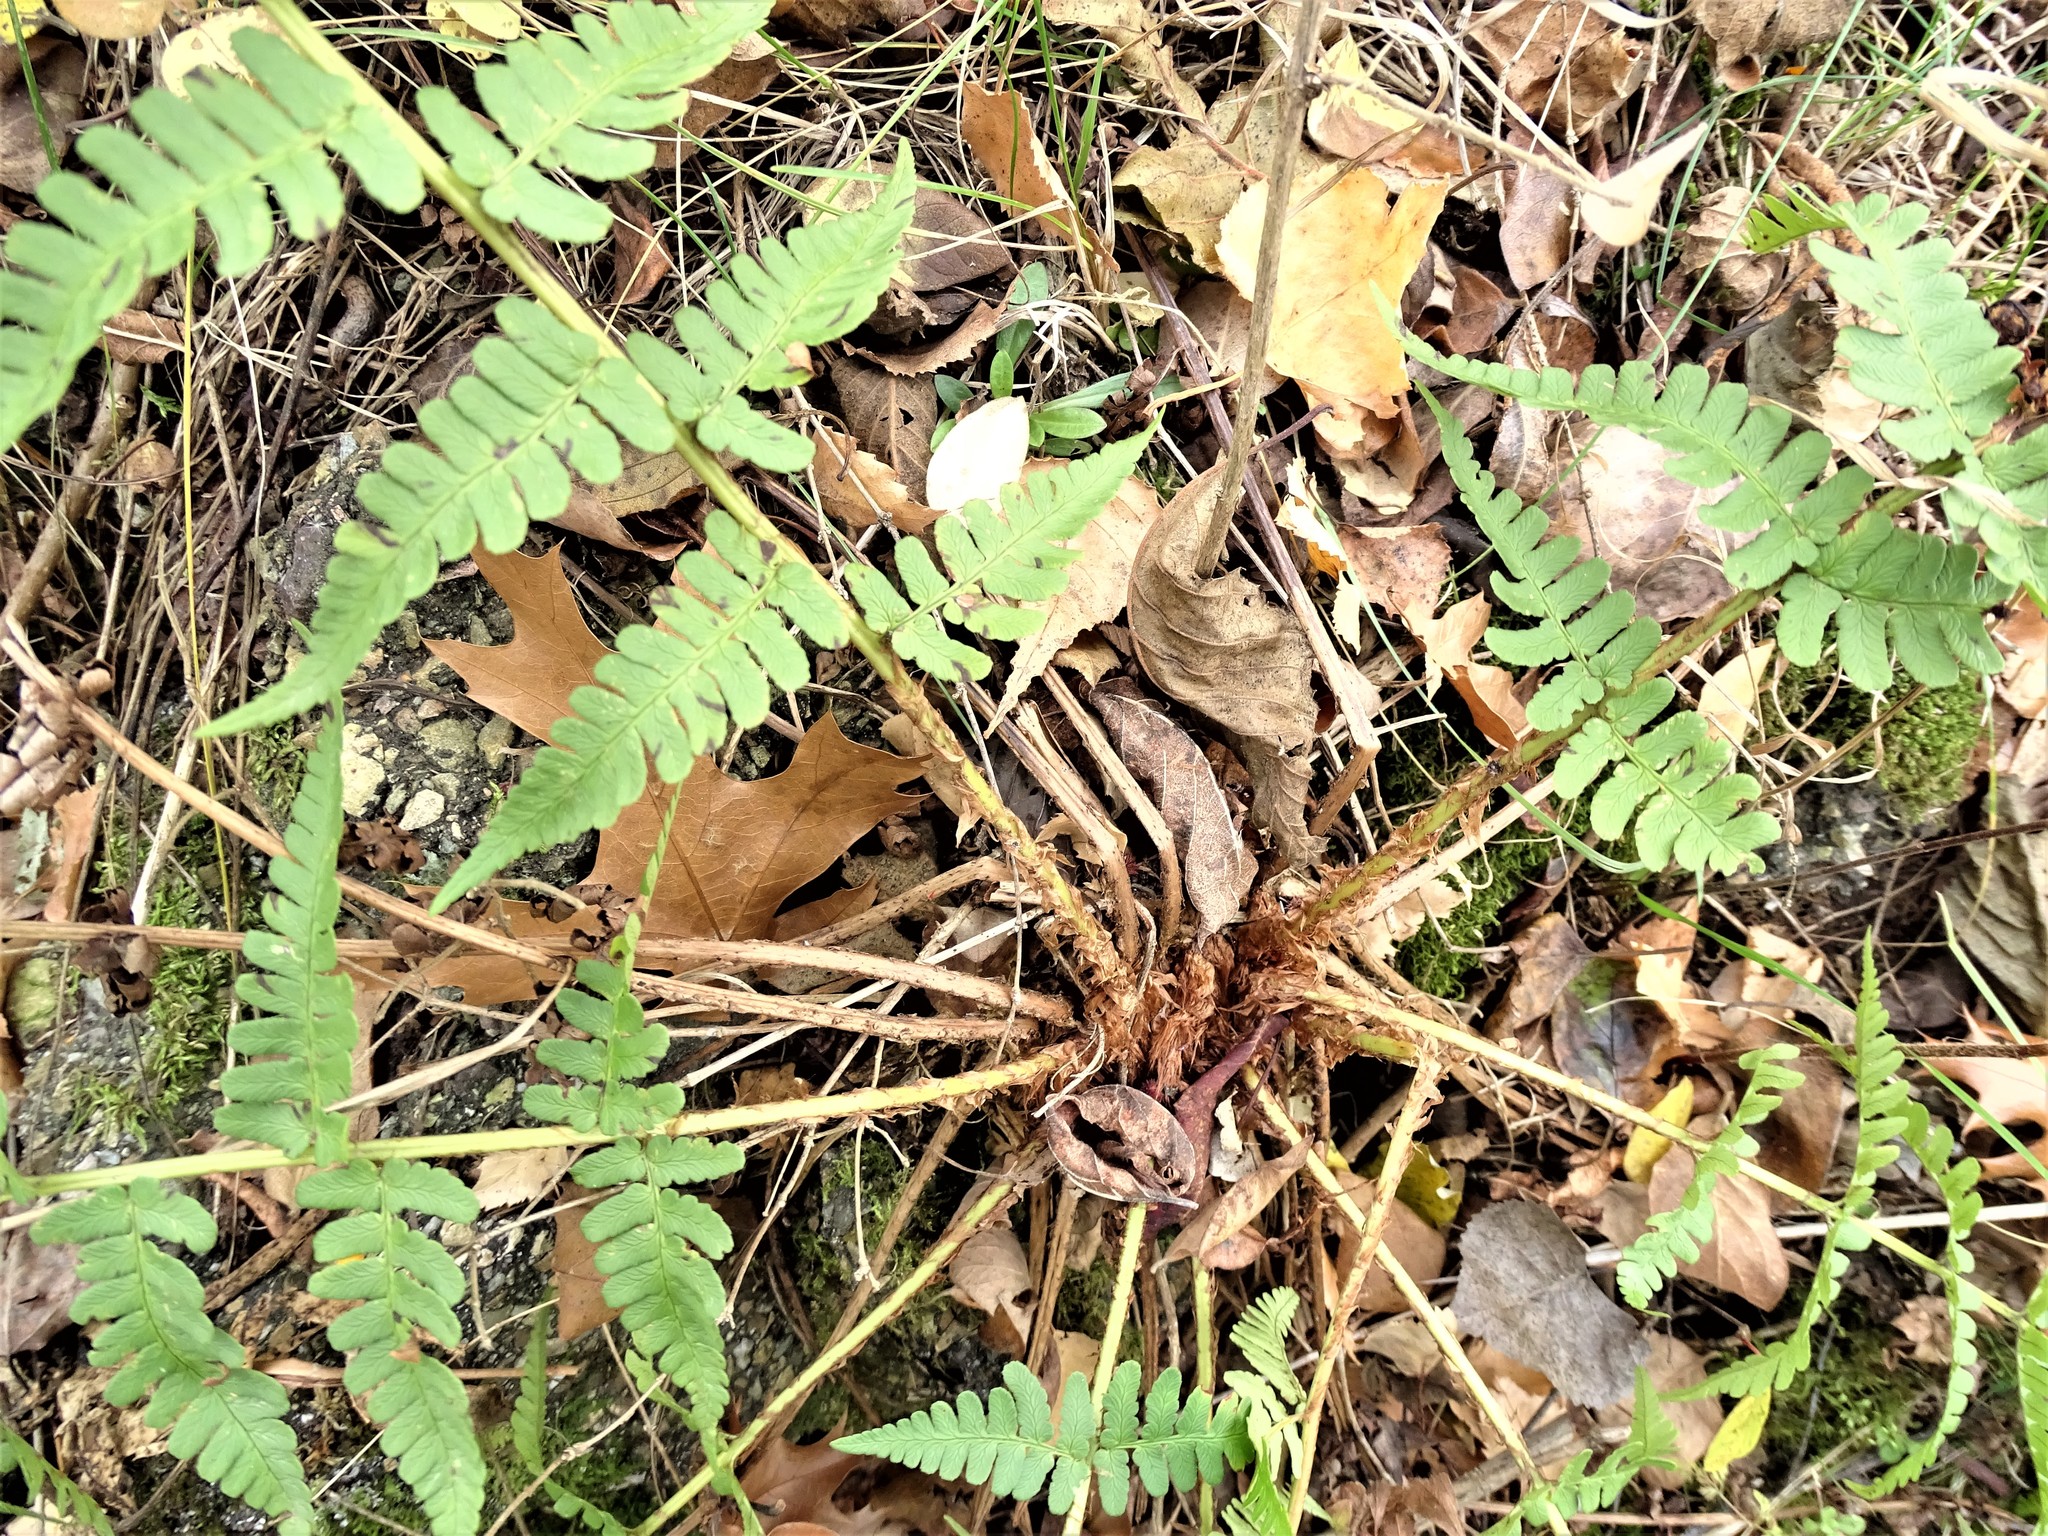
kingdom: Plantae
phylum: Tracheophyta
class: Polypodiopsida
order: Polypodiales
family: Dryopteridaceae
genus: Dryopteris
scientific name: Dryopteris marginalis
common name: Marginal wood fern
